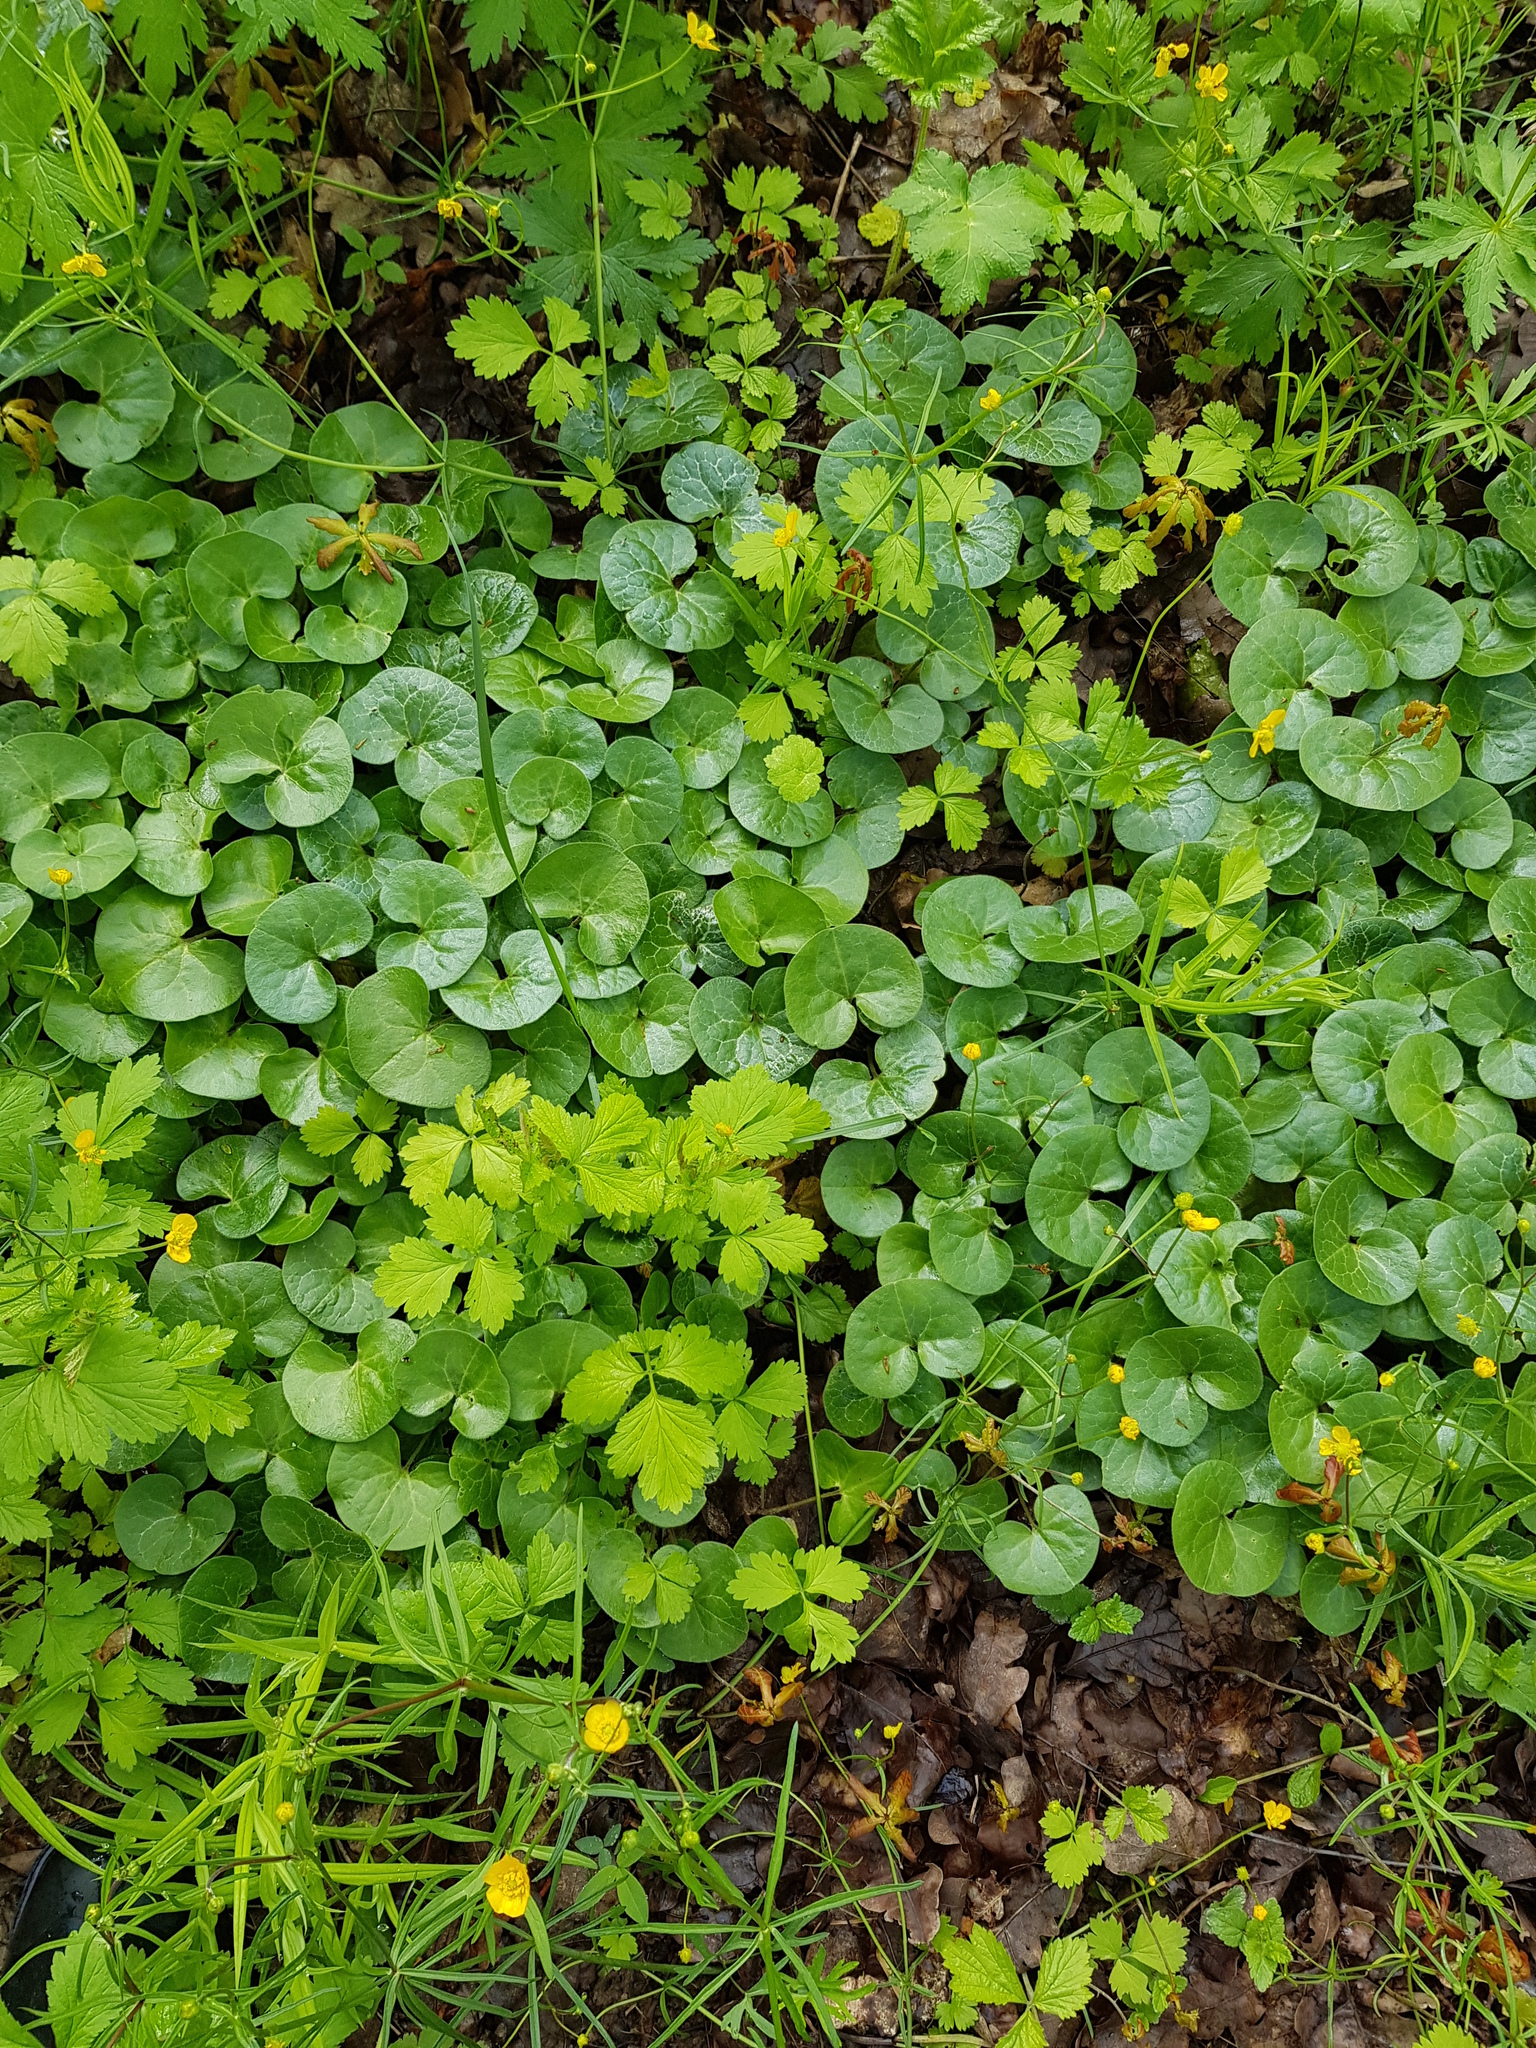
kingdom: Plantae
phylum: Tracheophyta
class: Magnoliopsida
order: Piperales
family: Aristolochiaceae
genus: Asarum
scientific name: Asarum europaeum
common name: Asarabacca
